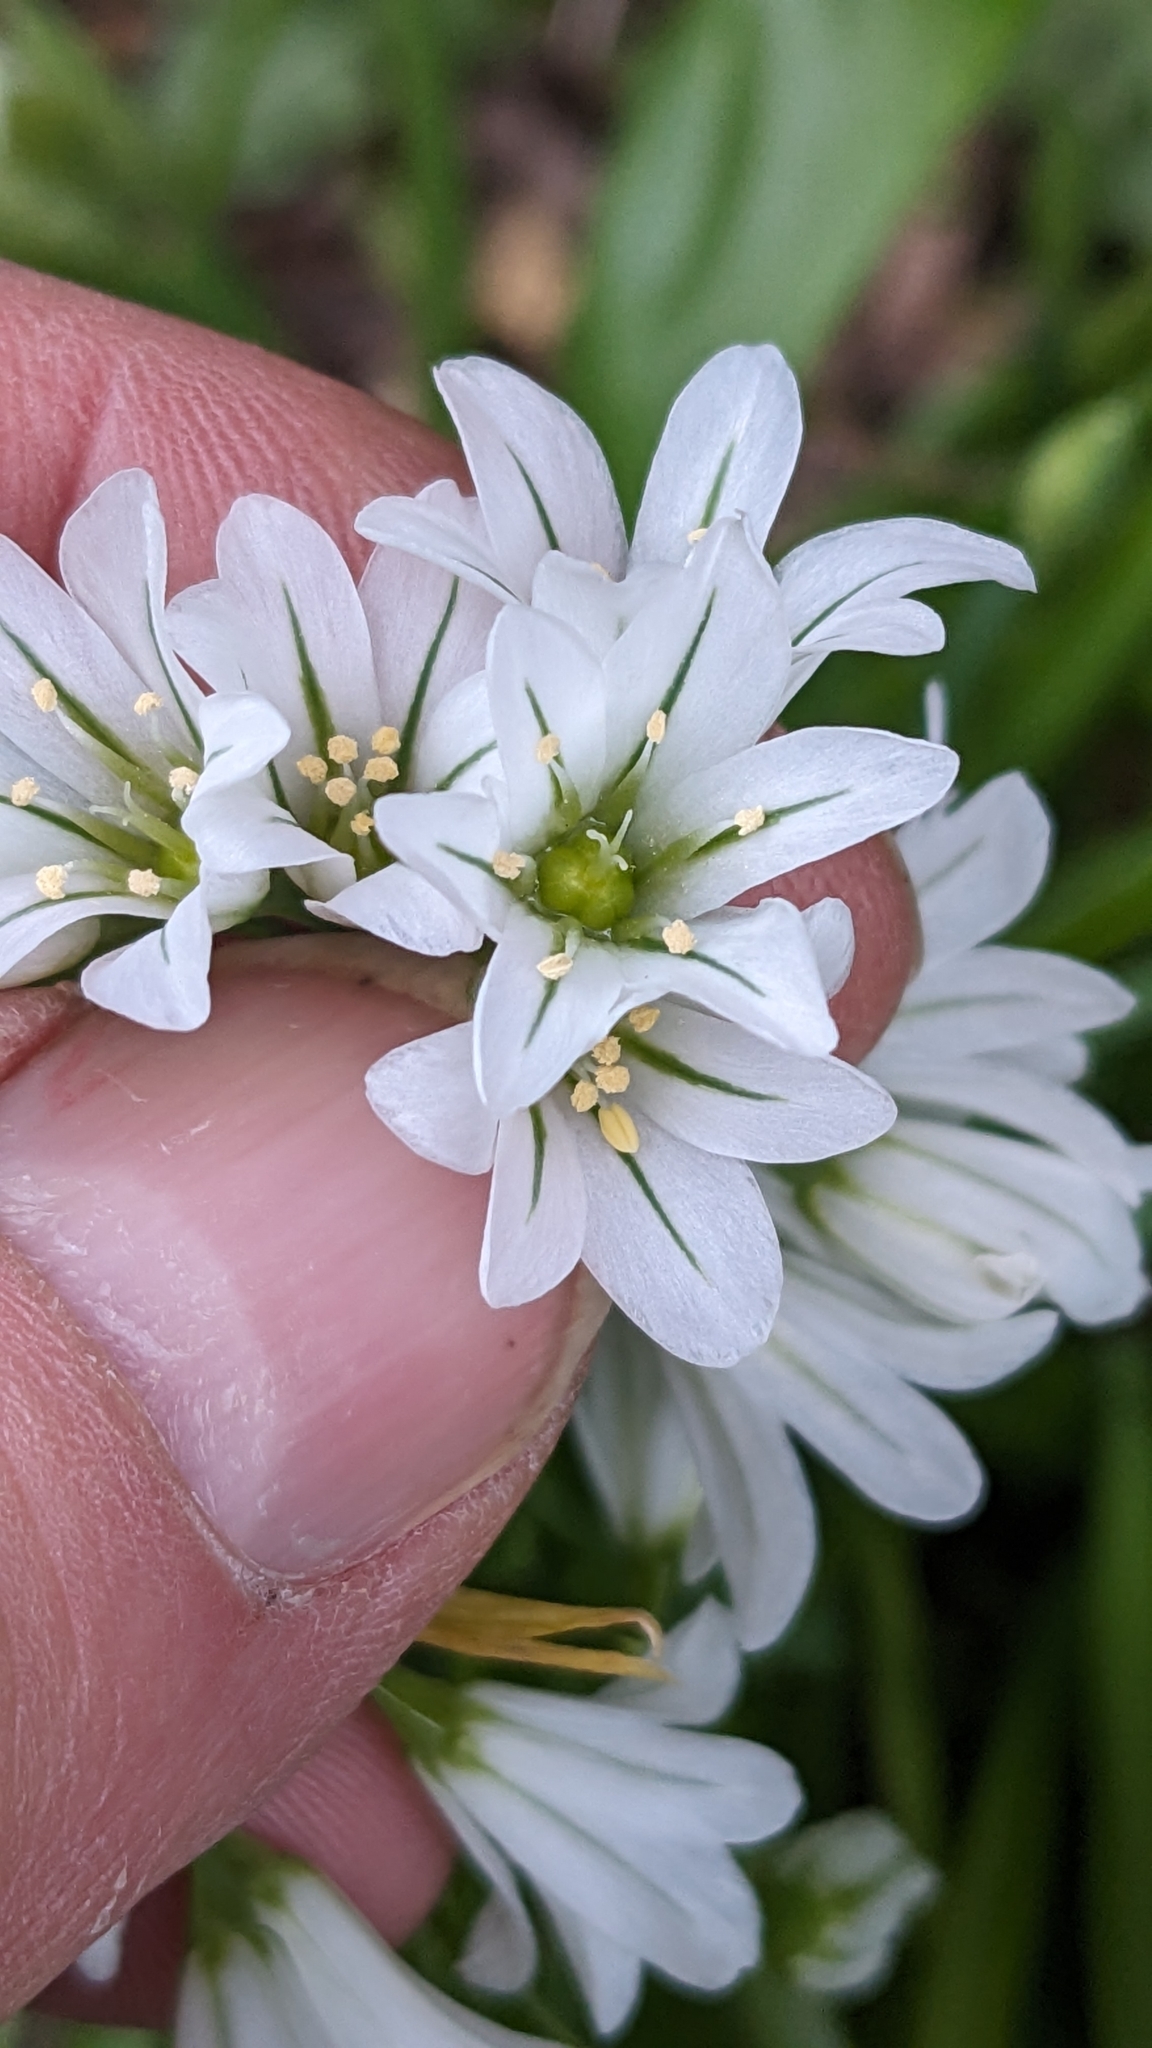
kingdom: Plantae
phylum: Tracheophyta
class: Liliopsida
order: Asparagales
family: Amaryllidaceae
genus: Allium
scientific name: Allium triquetrum
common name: Three-cornered garlic
